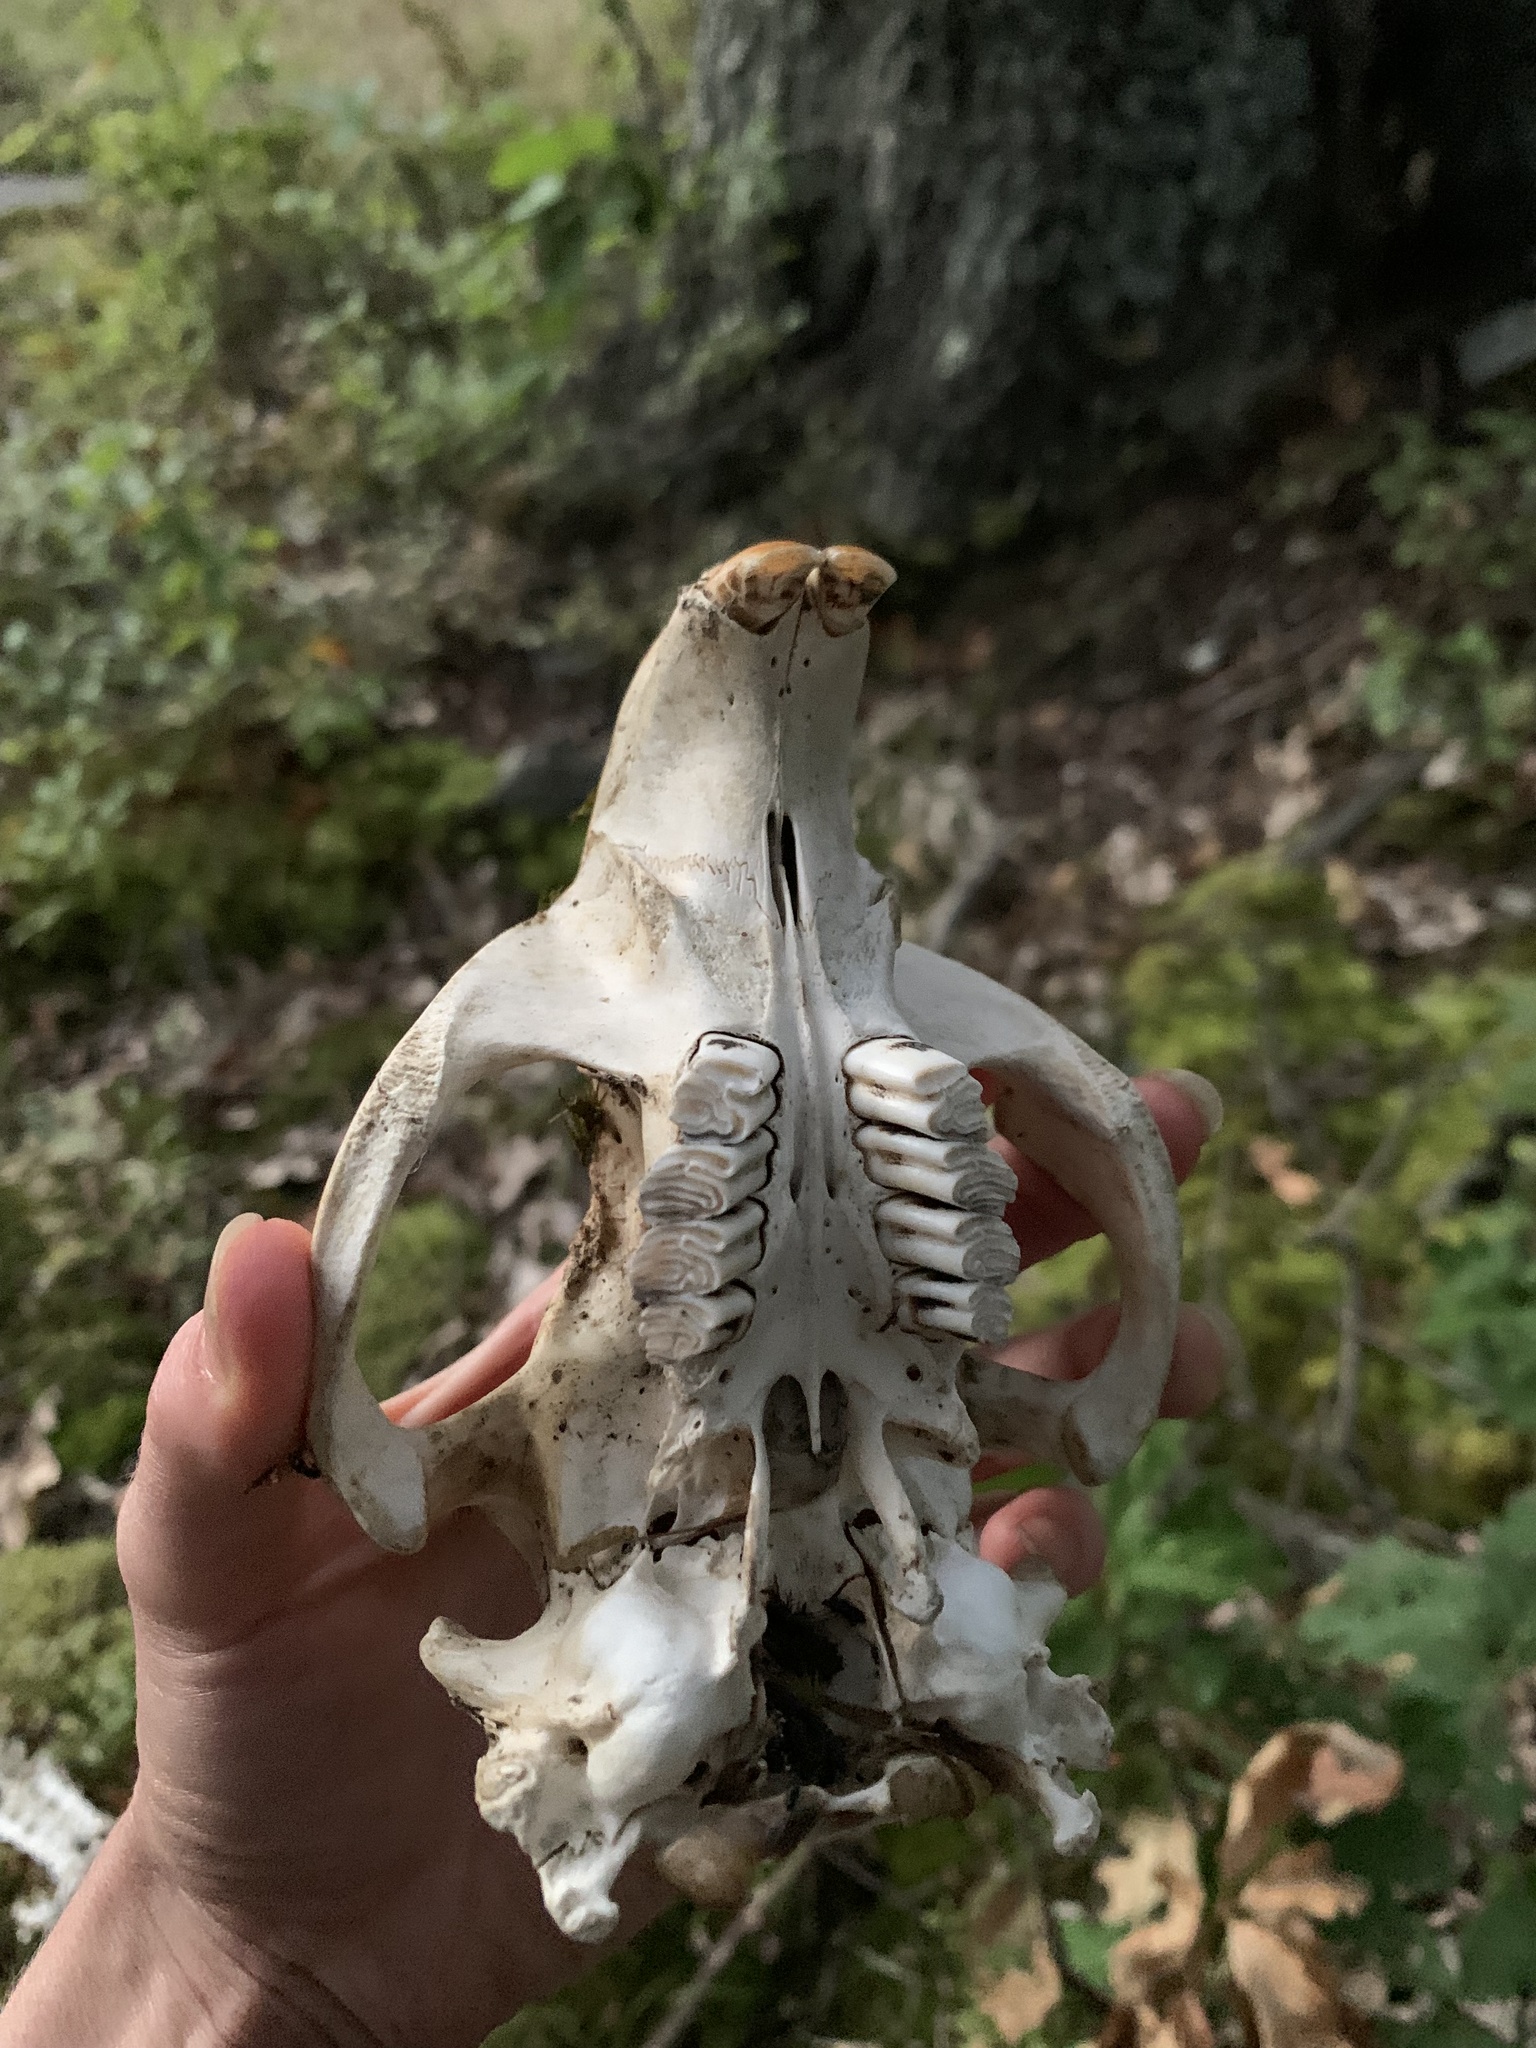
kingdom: Animalia
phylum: Chordata
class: Mammalia
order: Rodentia
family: Castoridae
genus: Castor
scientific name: Castor canadensis
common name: American beaver
